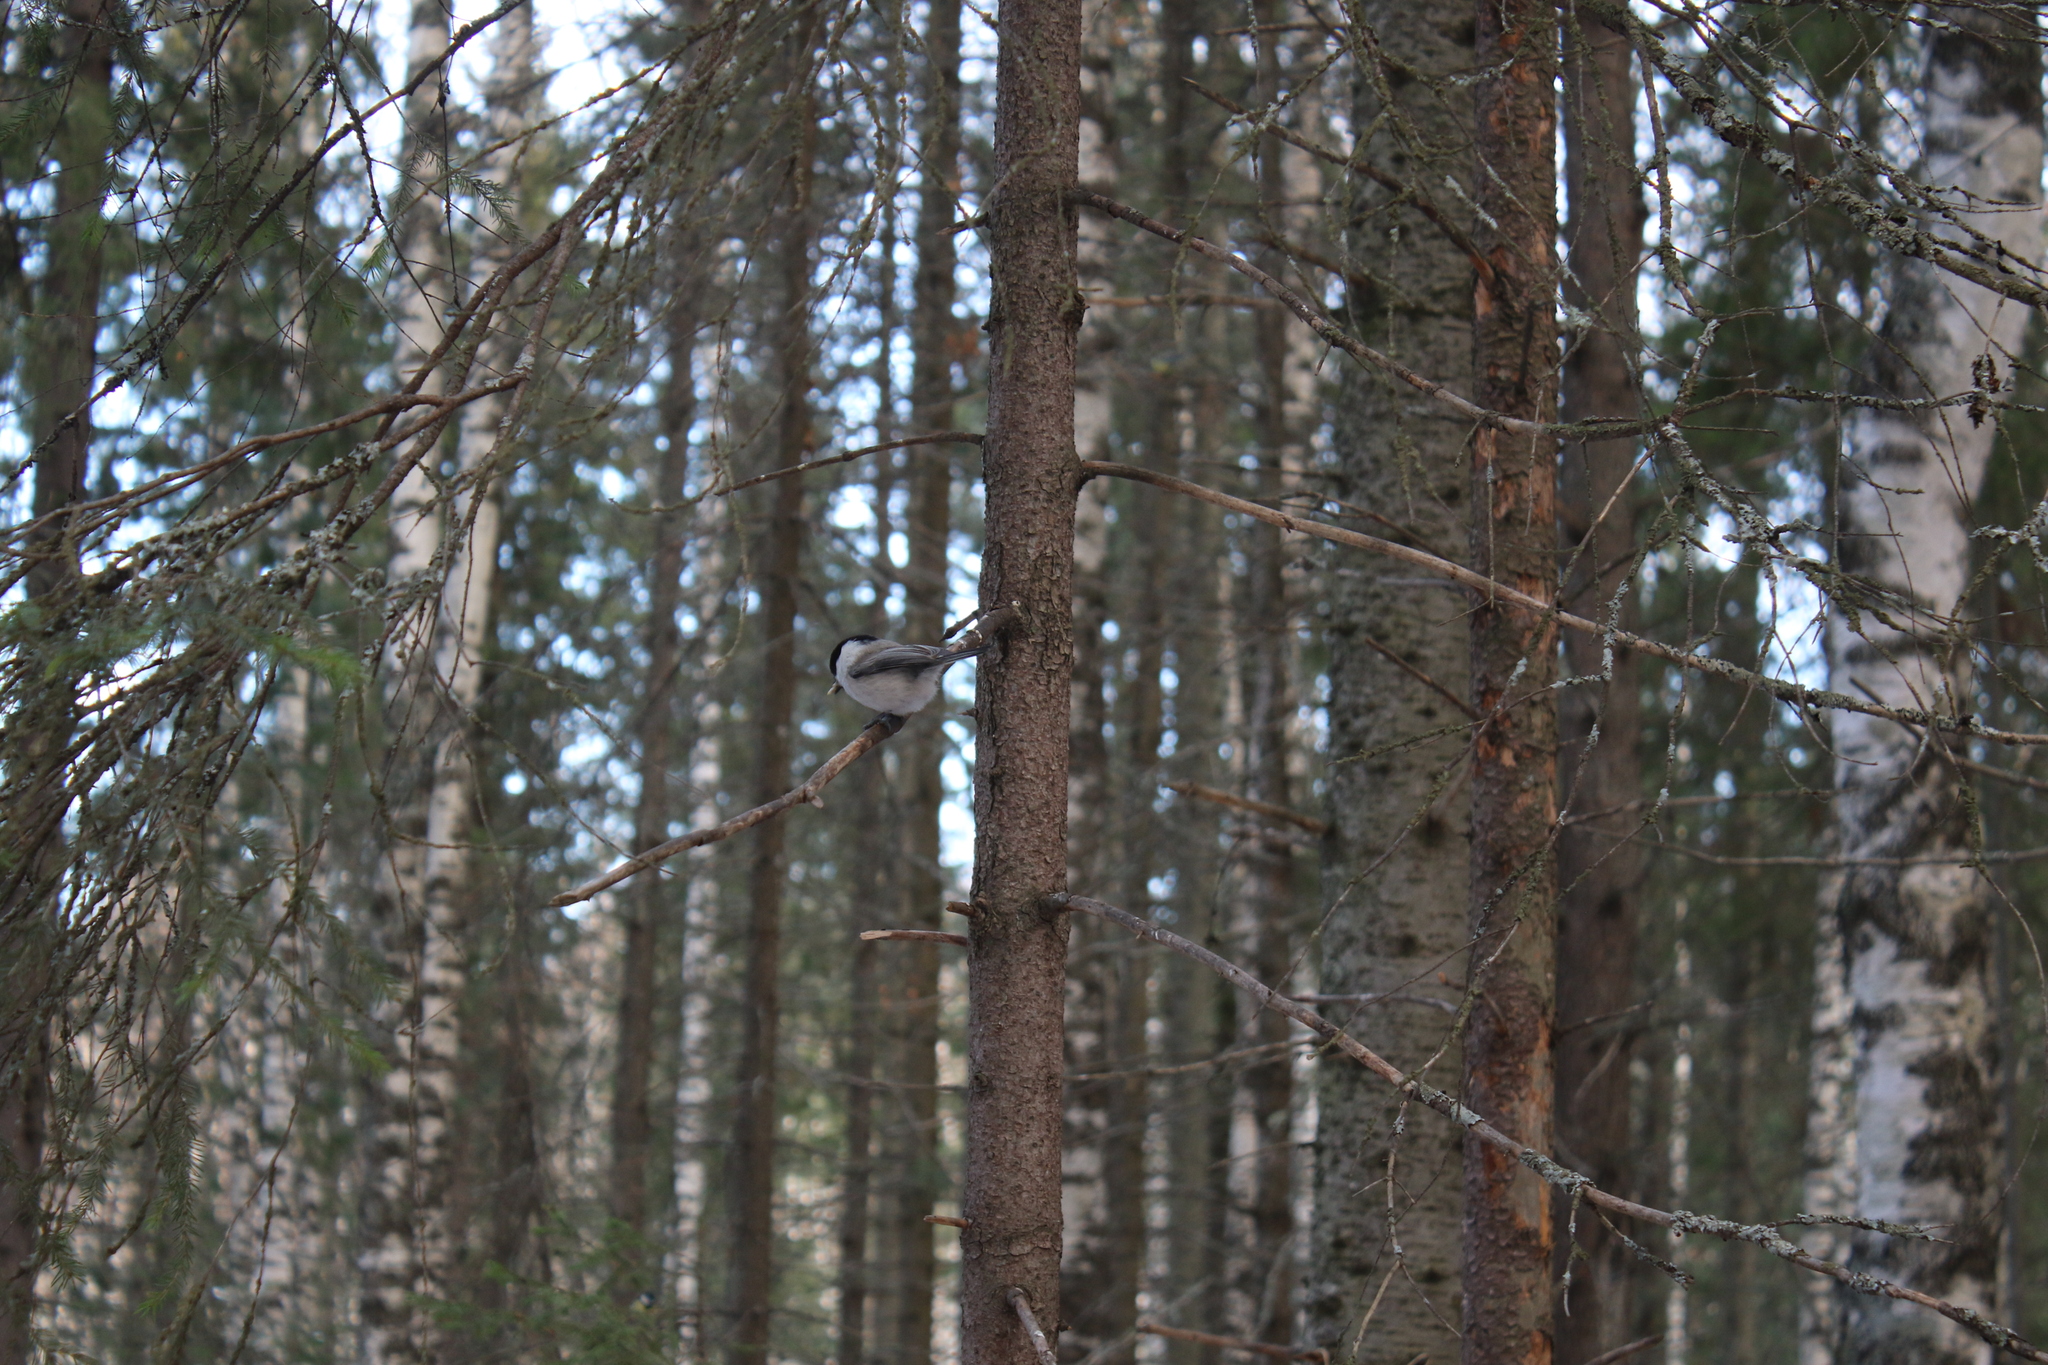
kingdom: Animalia
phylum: Chordata
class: Aves
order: Passeriformes
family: Paridae
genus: Poecile
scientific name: Poecile montanus
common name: Willow tit
